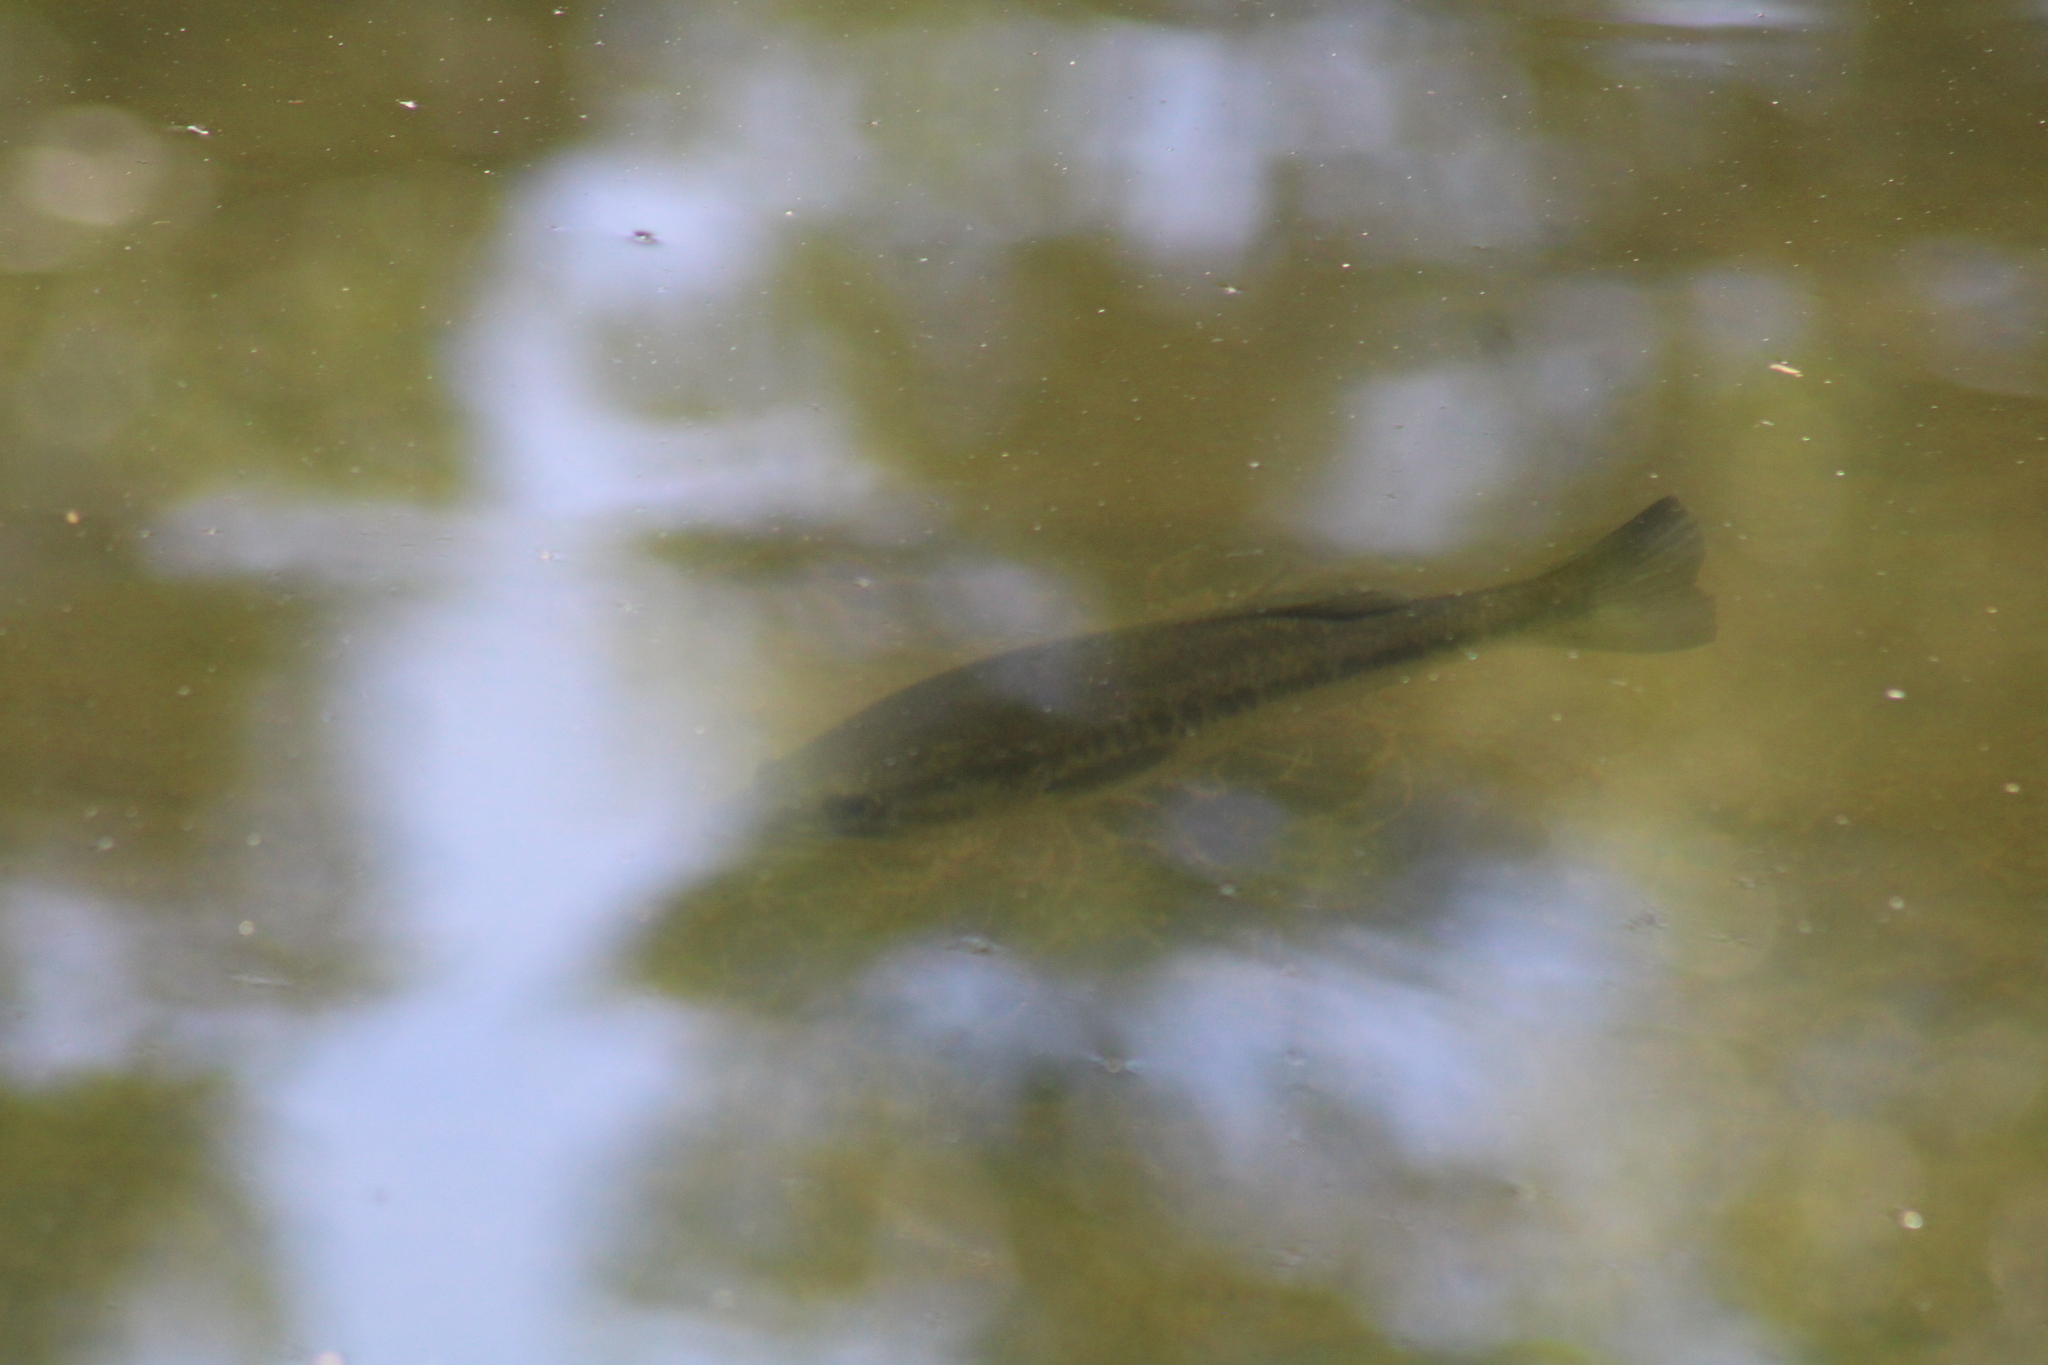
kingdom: Animalia
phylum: Chordata
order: Perciformes
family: Centrarchidae
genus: Micropterus
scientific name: Micropterus salmoides
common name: Largemouth bass
